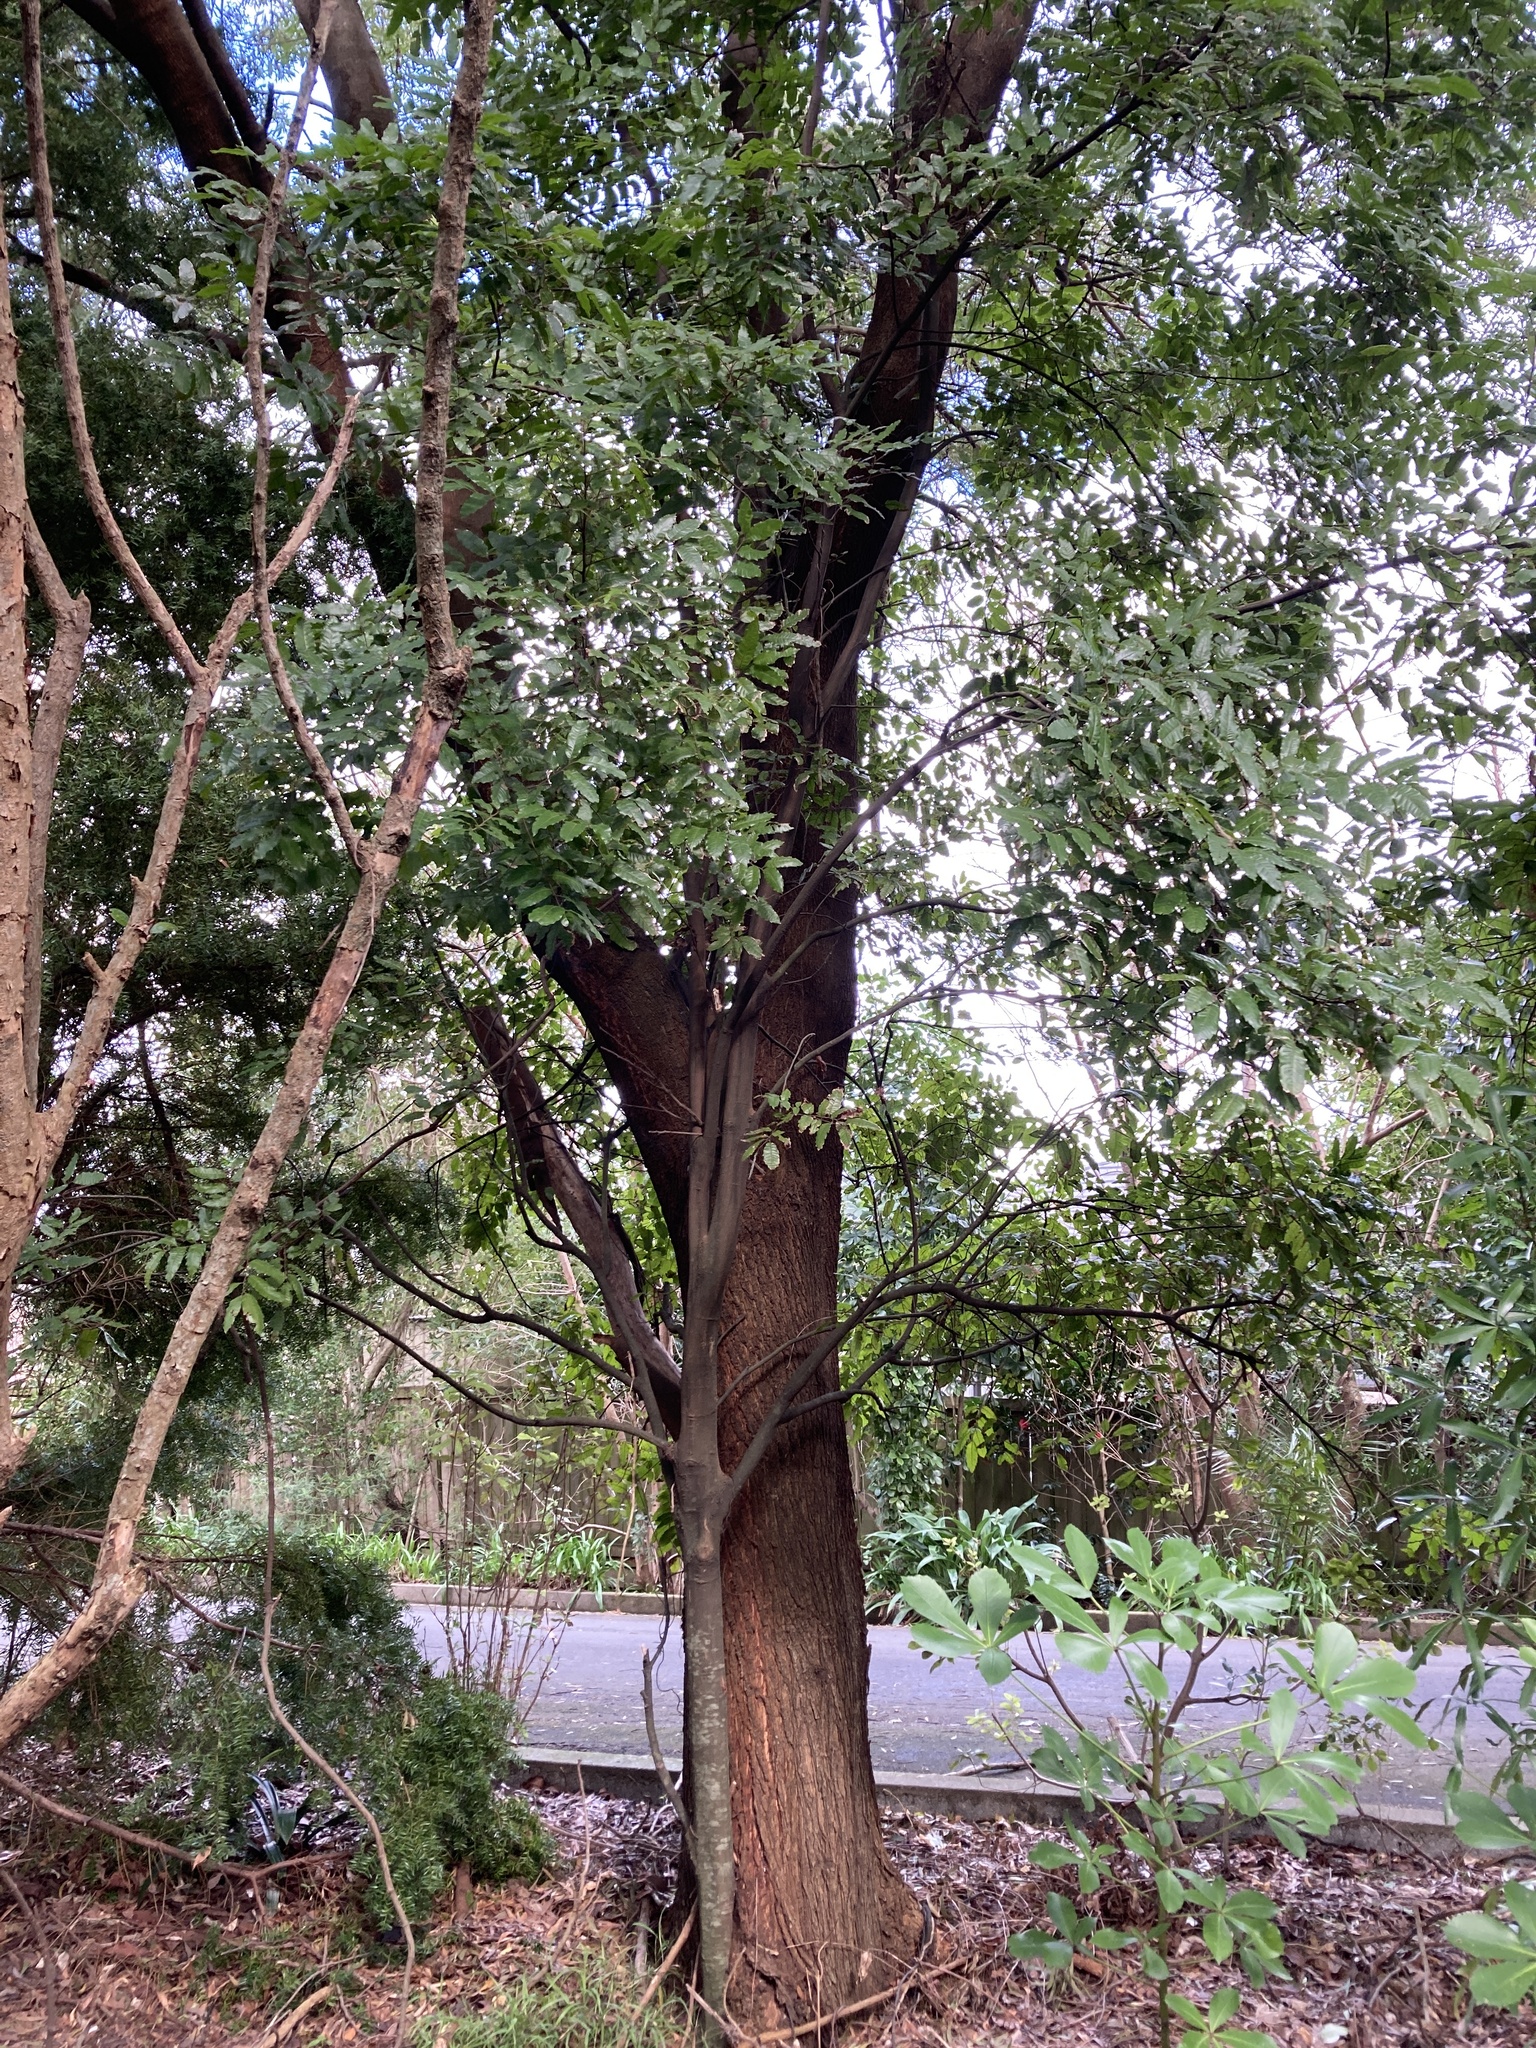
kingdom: Plantae
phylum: Tracheophyta
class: Magnoliopsida
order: Sapindales
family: Sapindaceae
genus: Alectryon
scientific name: Alectryon excelsus
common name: Three kings titoki
